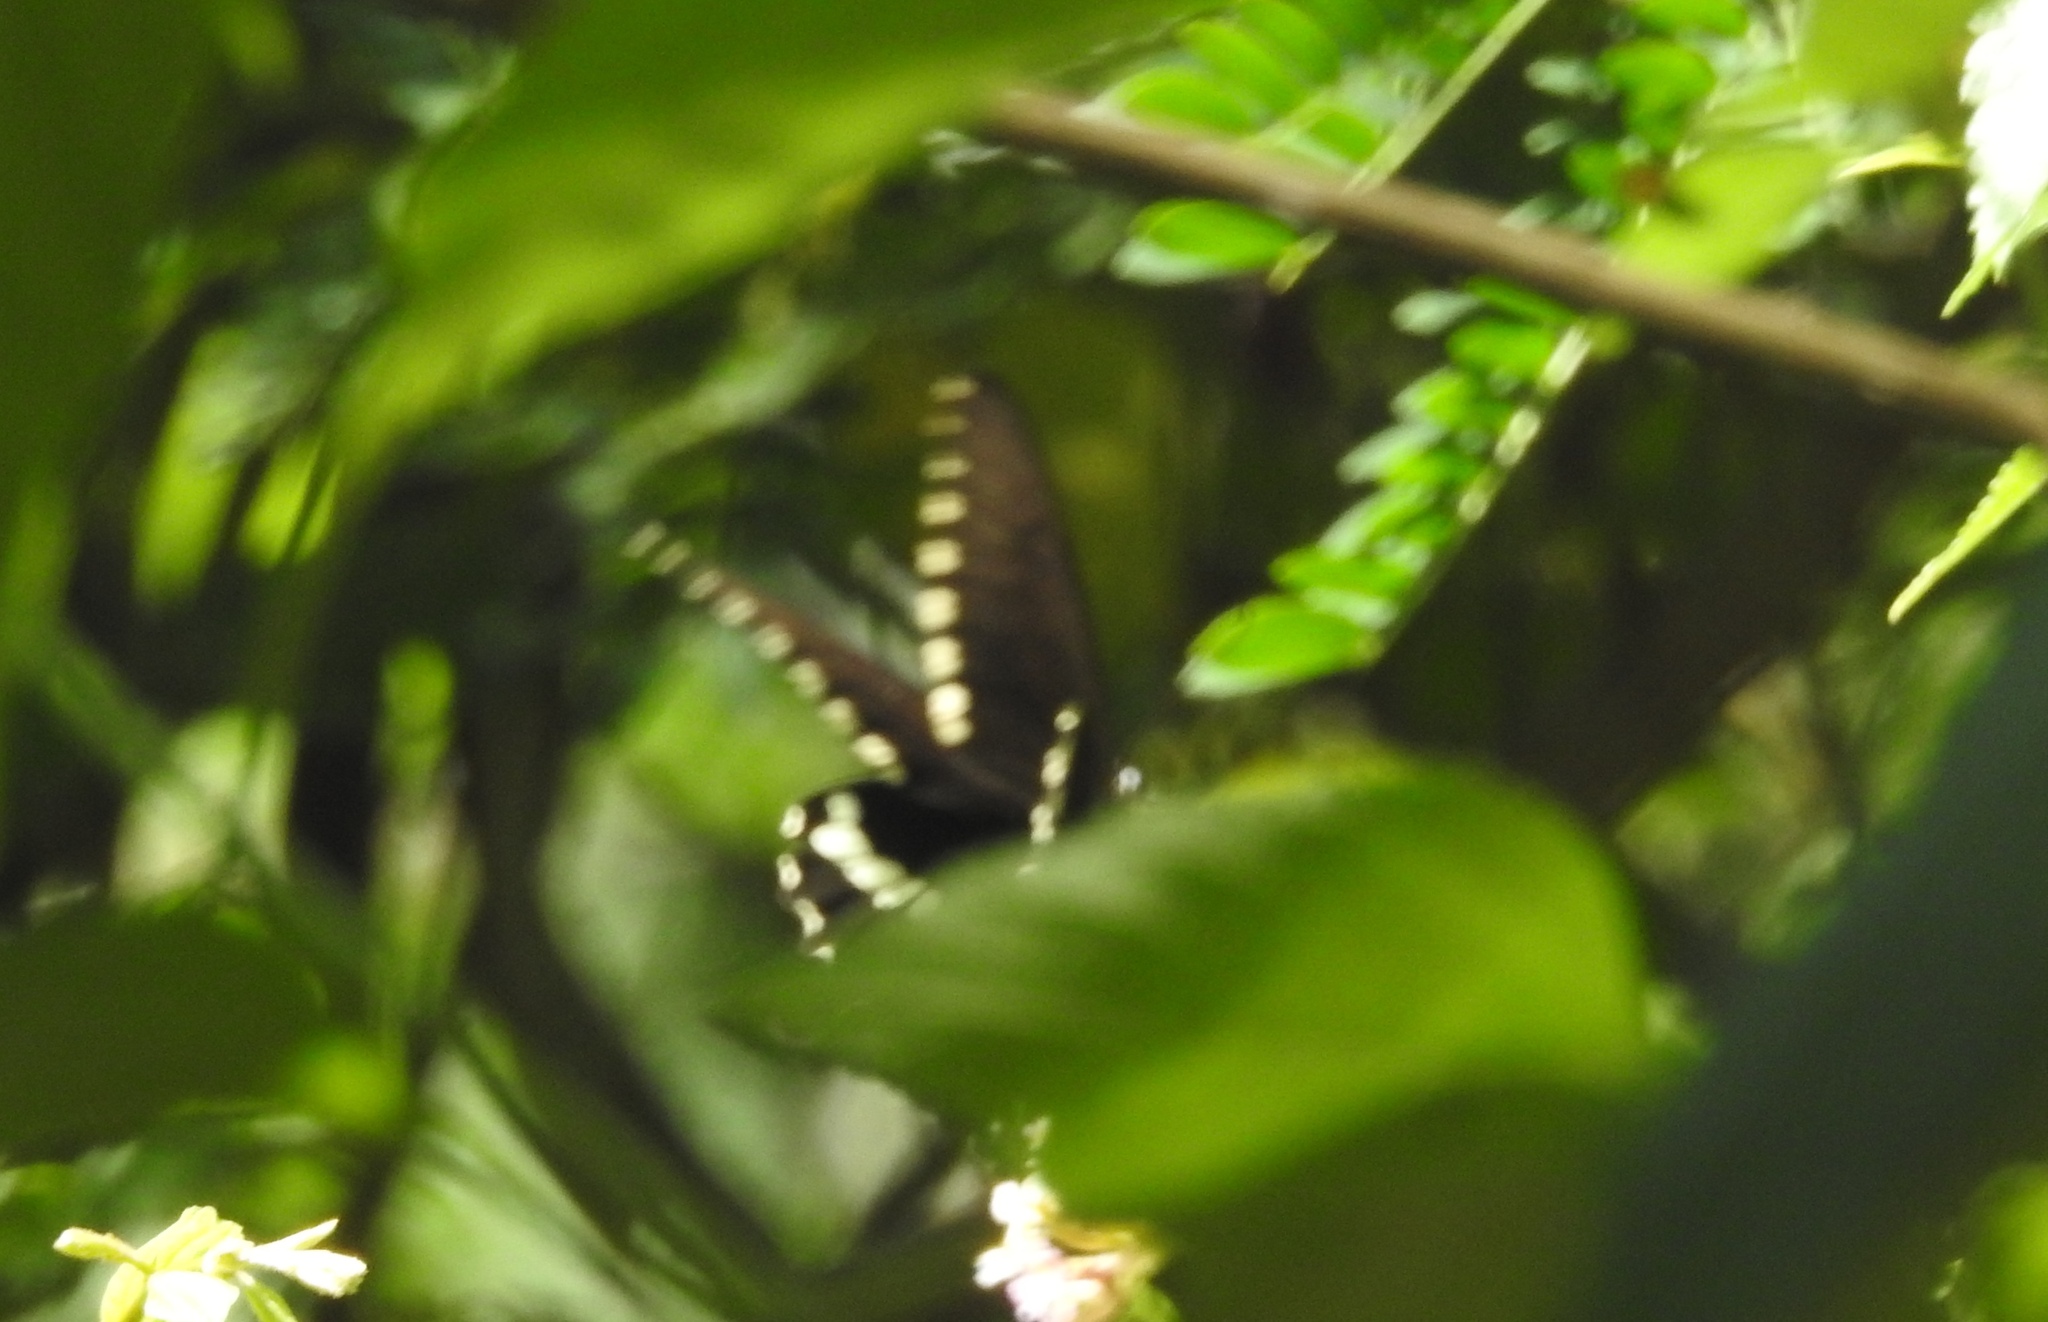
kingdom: Animalia
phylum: Arthropoda
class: Insecta
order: Lepidoptera
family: Papilionidae
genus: Papilio
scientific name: Papilio polytes
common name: Common mormon
